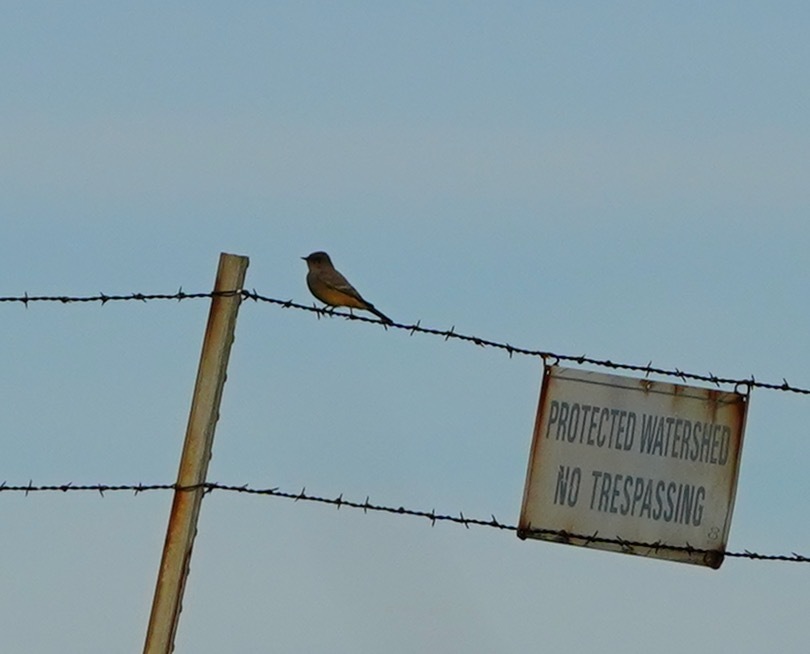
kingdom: Animalia
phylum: Chordata
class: Aves
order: Passeriformes
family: Tyrannidae
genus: Sayornis
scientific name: Sayornis saya
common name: Say's phoebe
